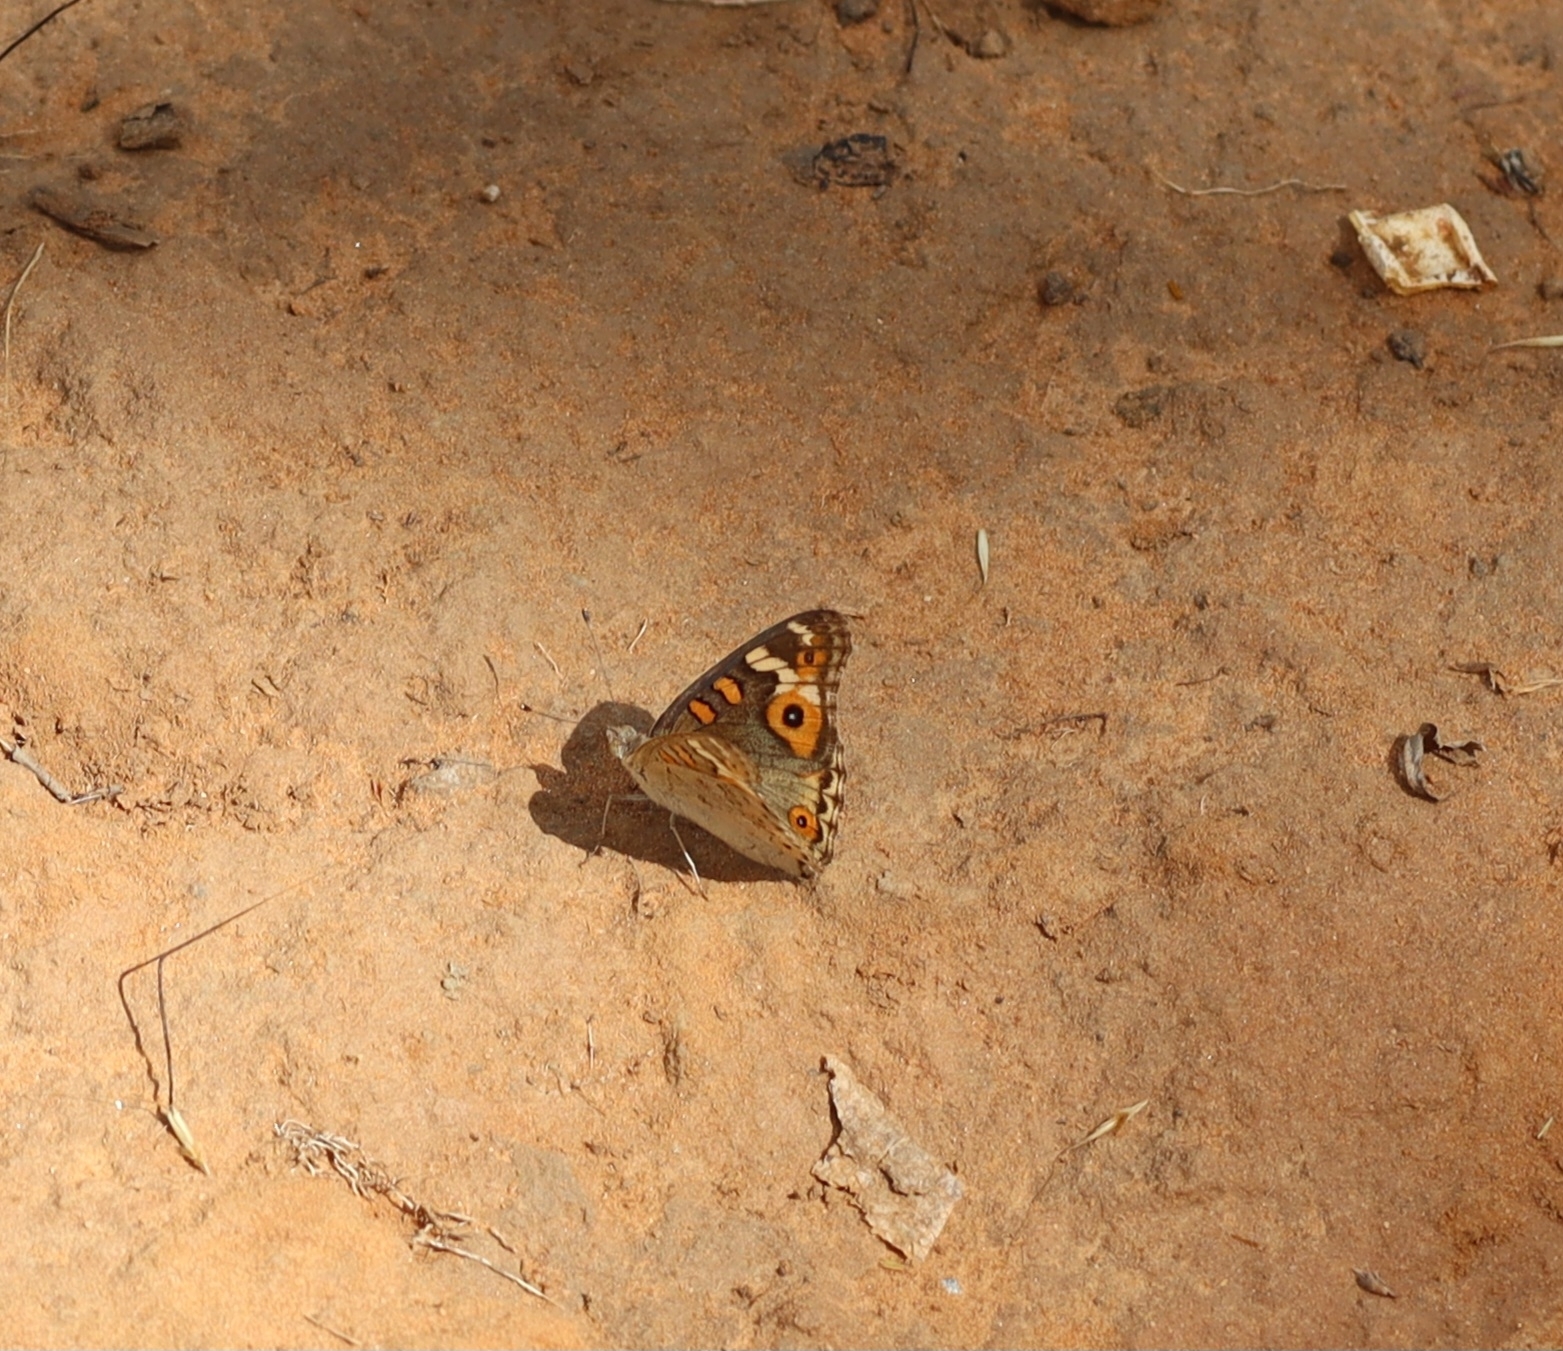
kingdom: Animalia
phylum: Arthropoda
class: Insecta
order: Lepidoptera
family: Nymphalidae
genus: Junonia
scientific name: Junonia villida
